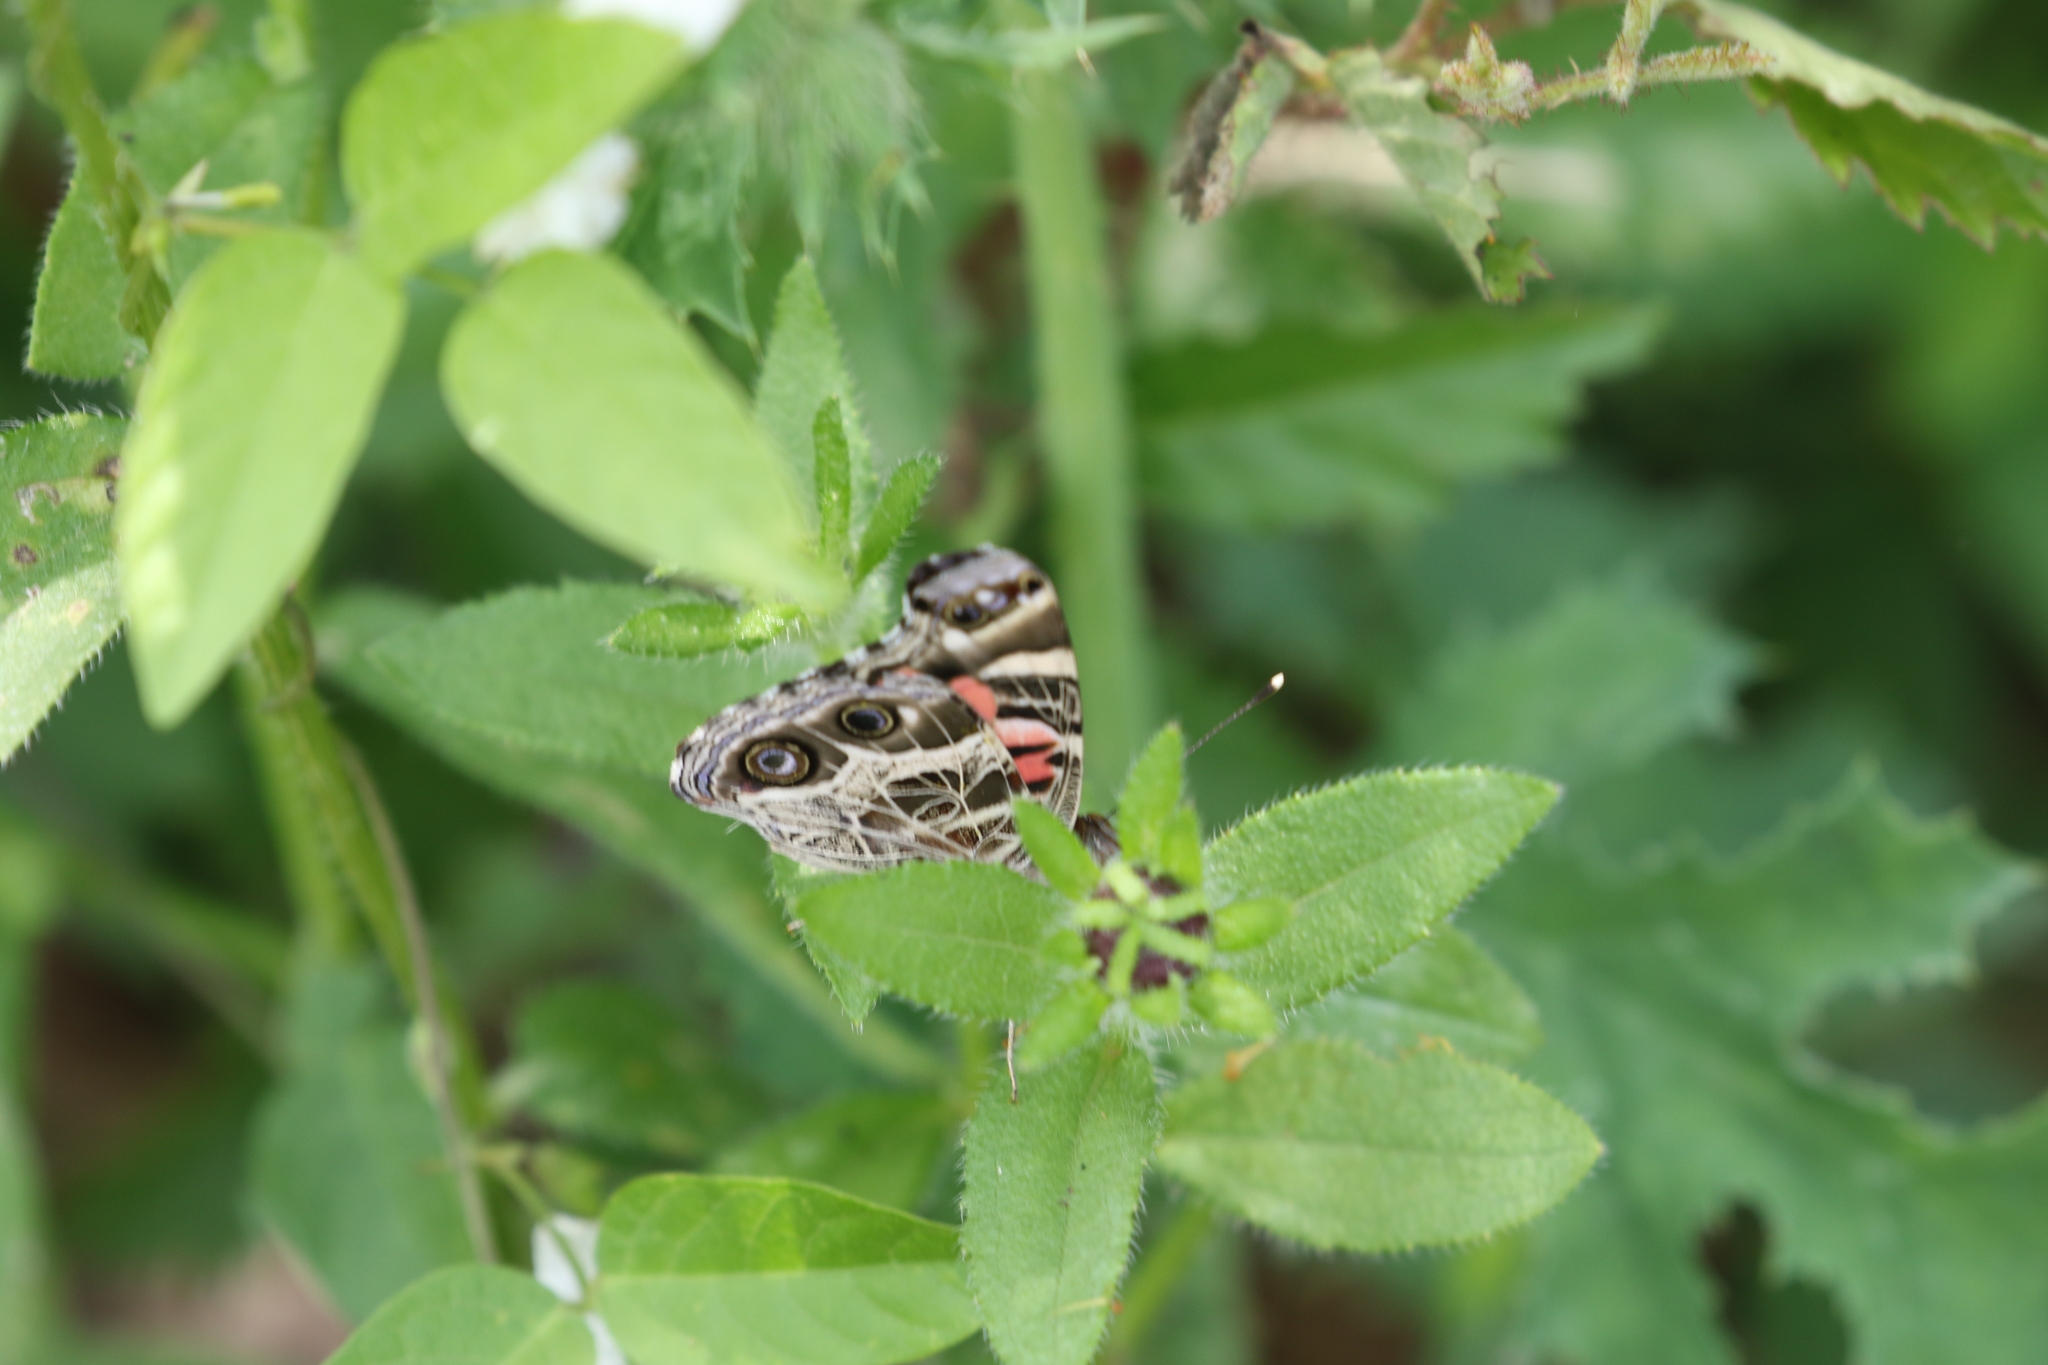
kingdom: Animalia
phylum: Arthropoda
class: Insecta
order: Lepidoptera
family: Nymphalidae
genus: Vanessa
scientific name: Vanessa virginiensis
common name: American lady
